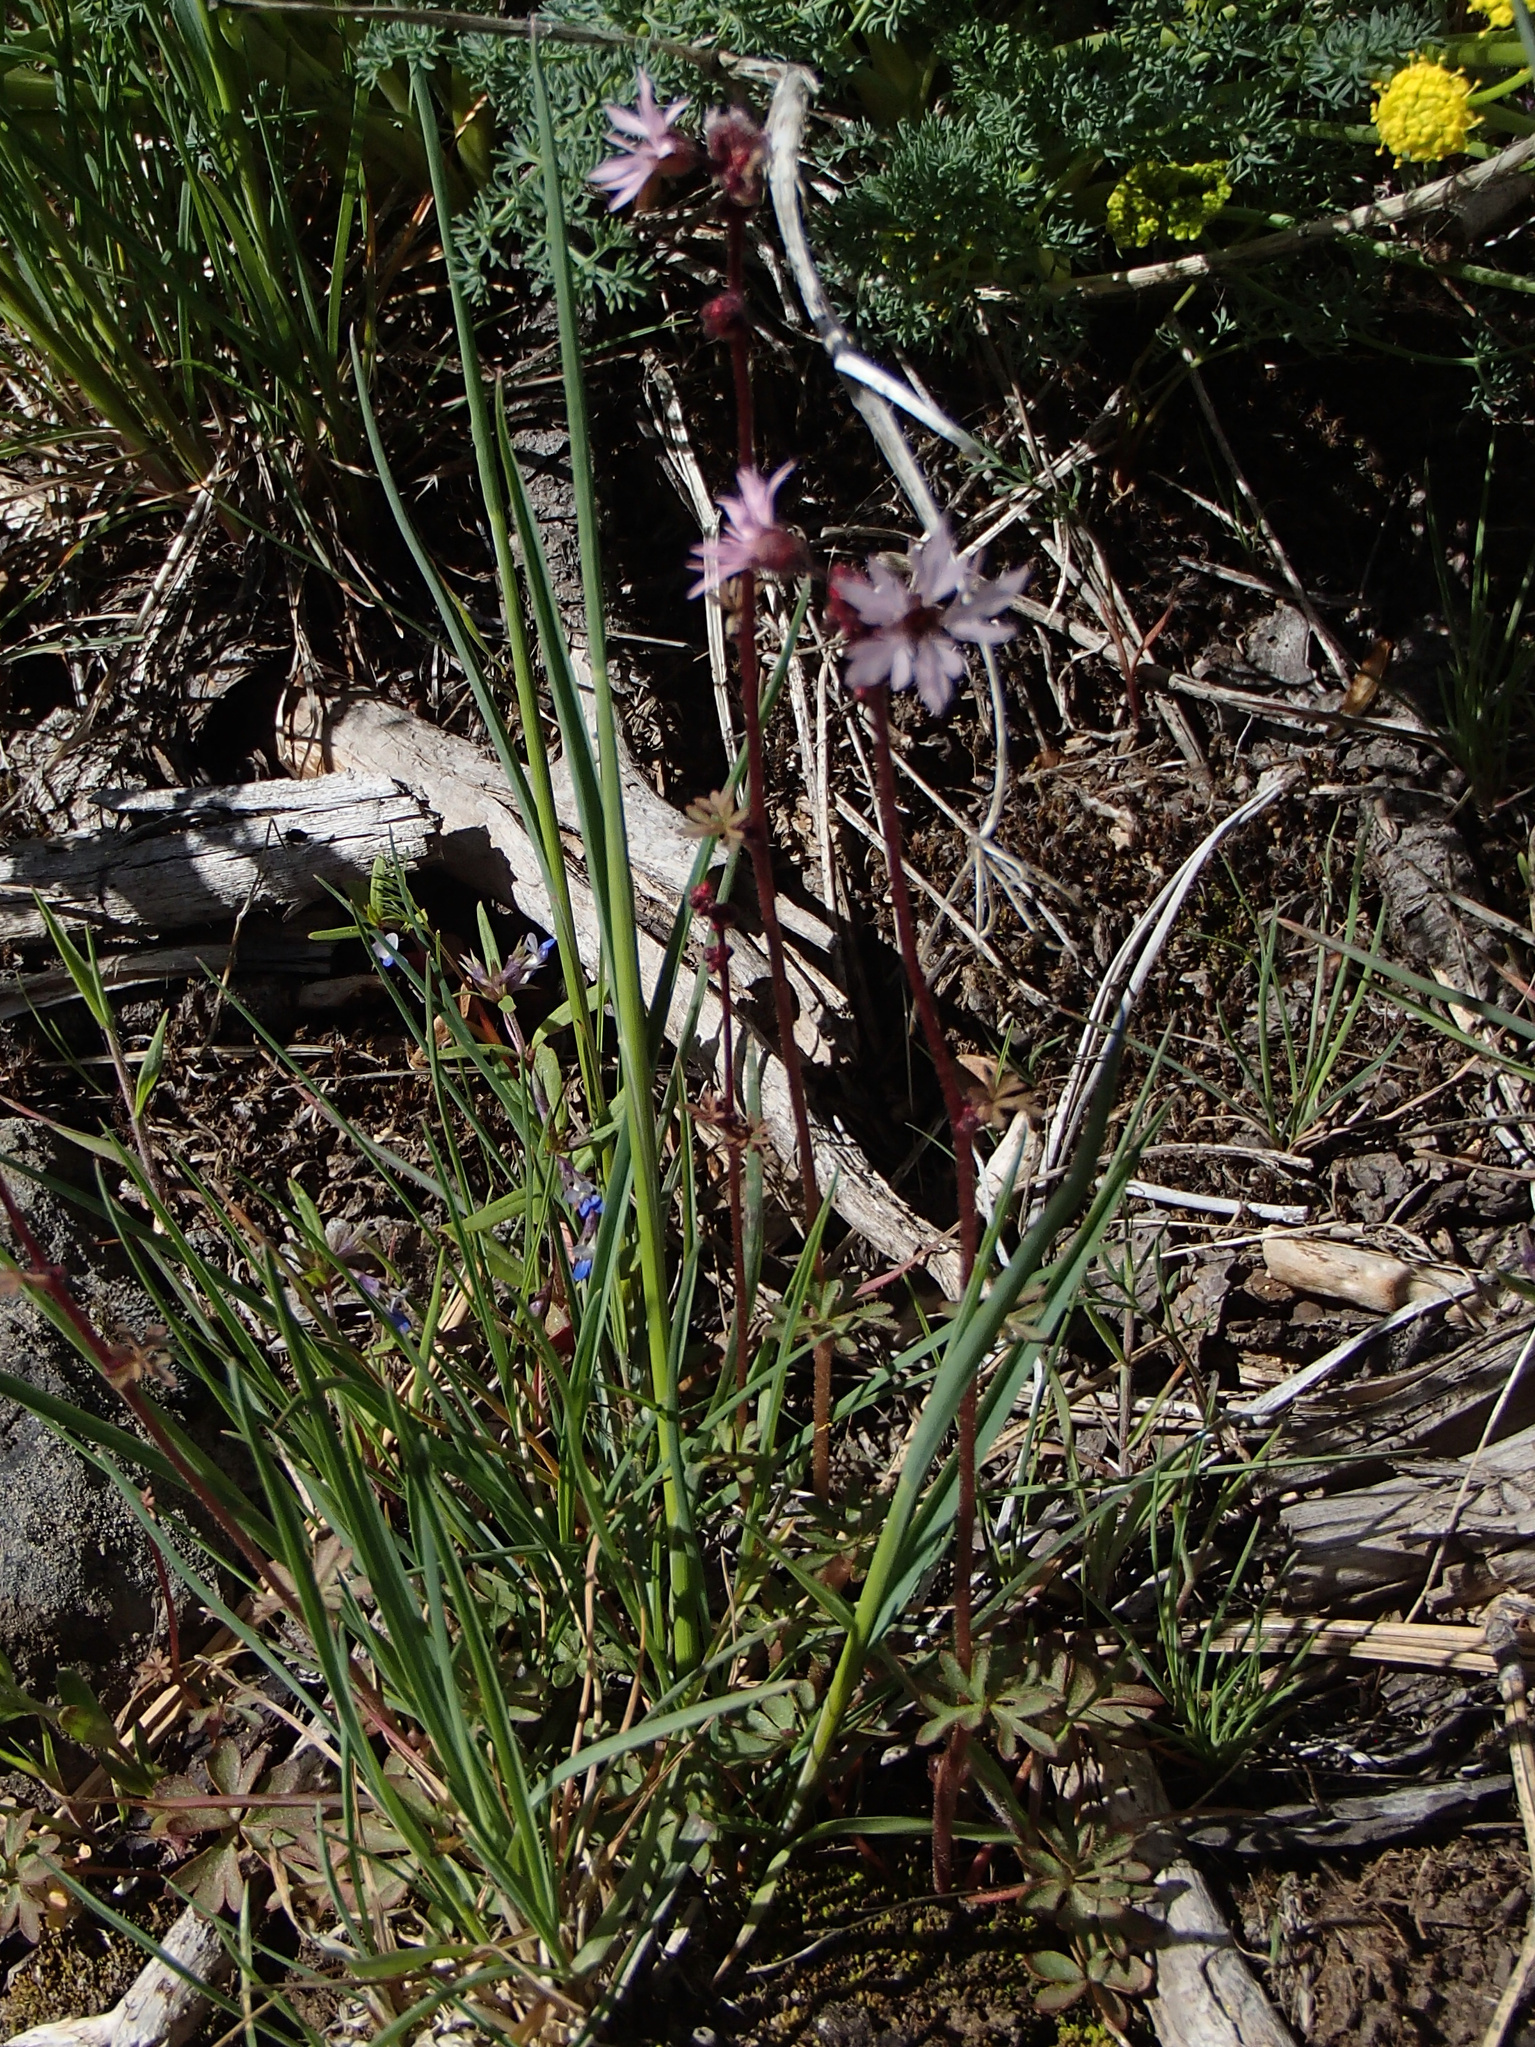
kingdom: Plantae
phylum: Tracheophyta
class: Magnoliopsida
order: Saxifragales
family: Saxifragaceae
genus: Lithophragma
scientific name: Lithophragma glabrum
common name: Bulbous prairie-star
